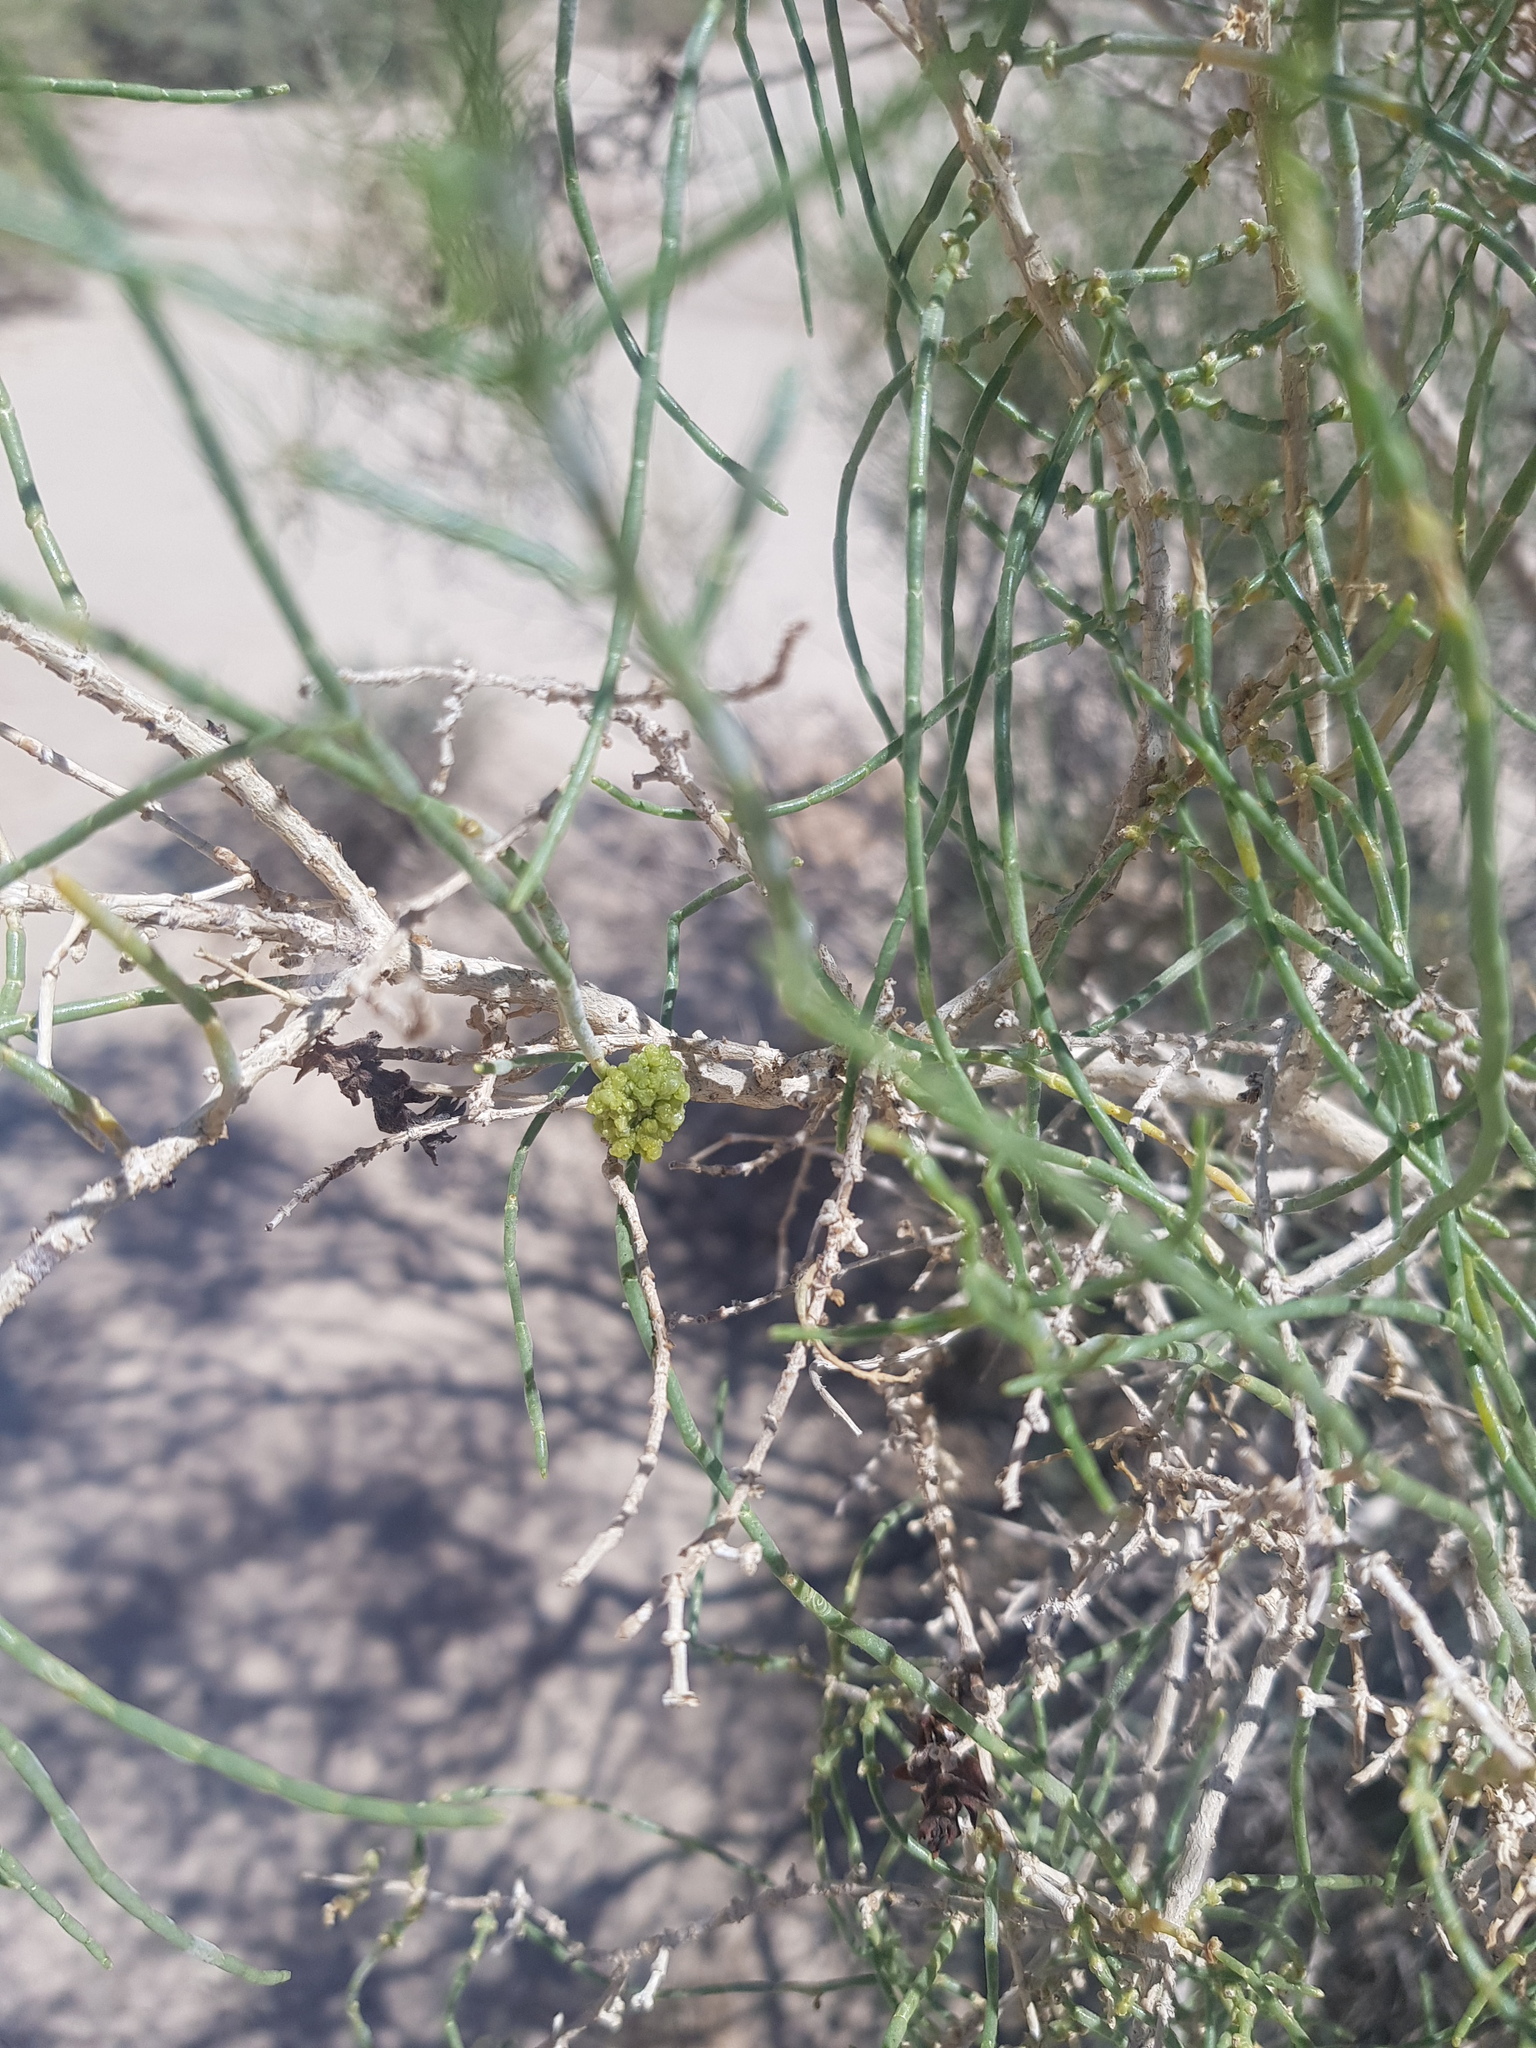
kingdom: Plantae
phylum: Tracheophyta
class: Magnoliopsida
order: Caryophyllales
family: Amaranthaceae
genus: Haloxylon
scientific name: Haloxylon ammodendron
